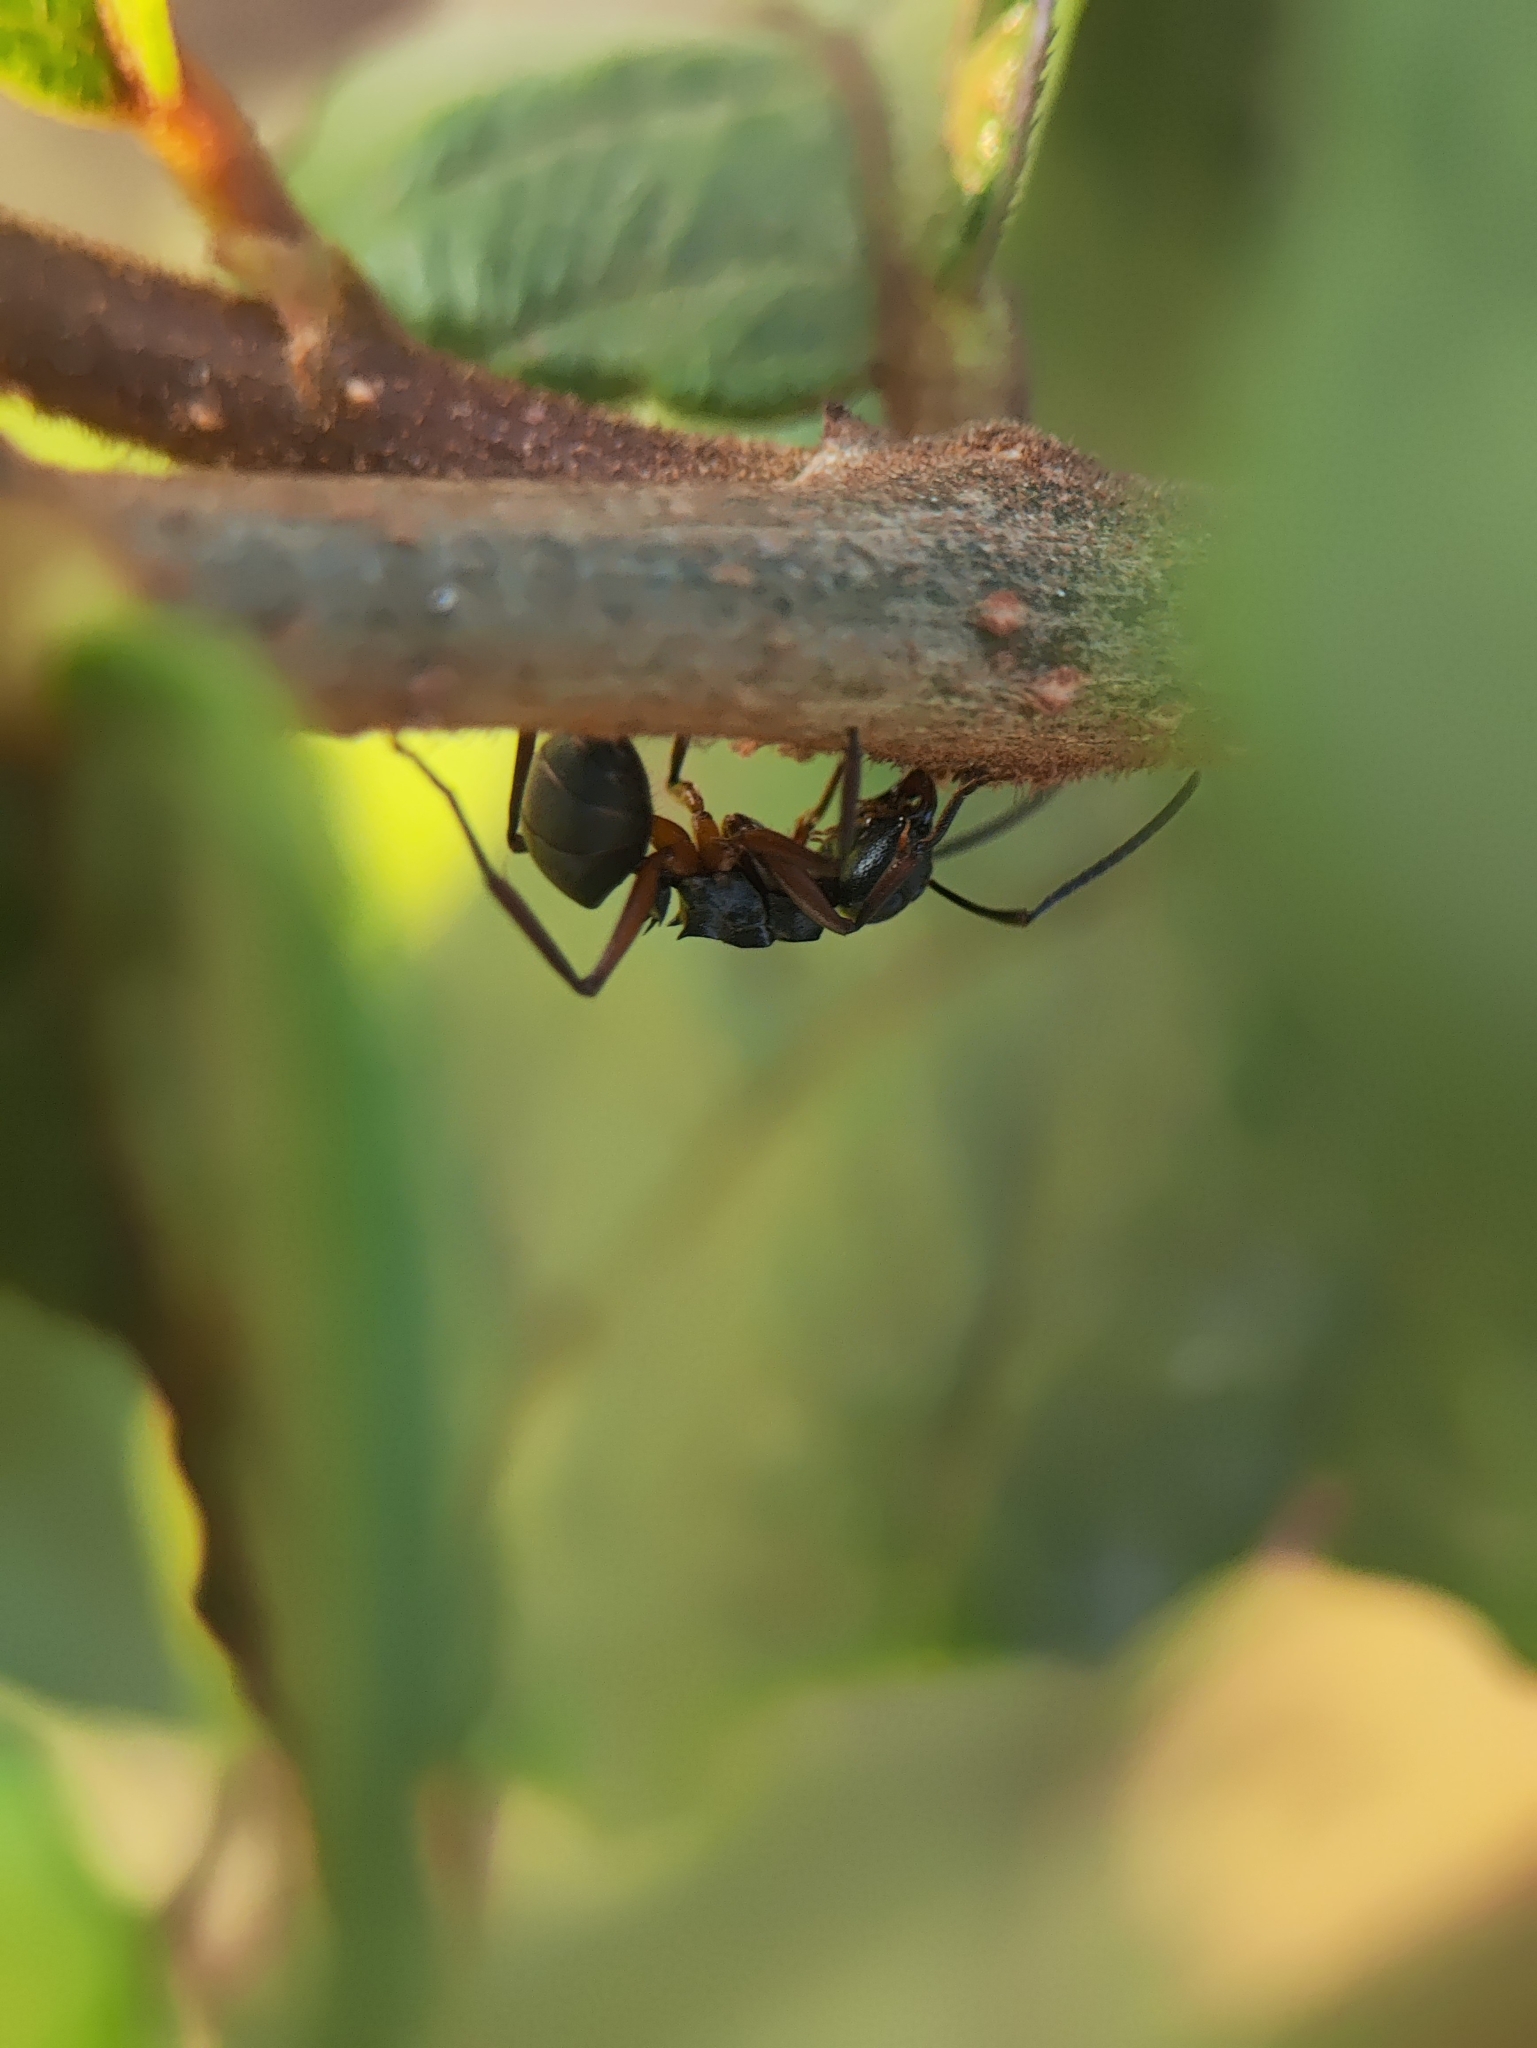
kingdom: Animalia
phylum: Arthropoda
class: Insecta
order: Hymenoptera
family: Formicidae
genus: Polyrhachis
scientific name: Polyrhachis exercita
